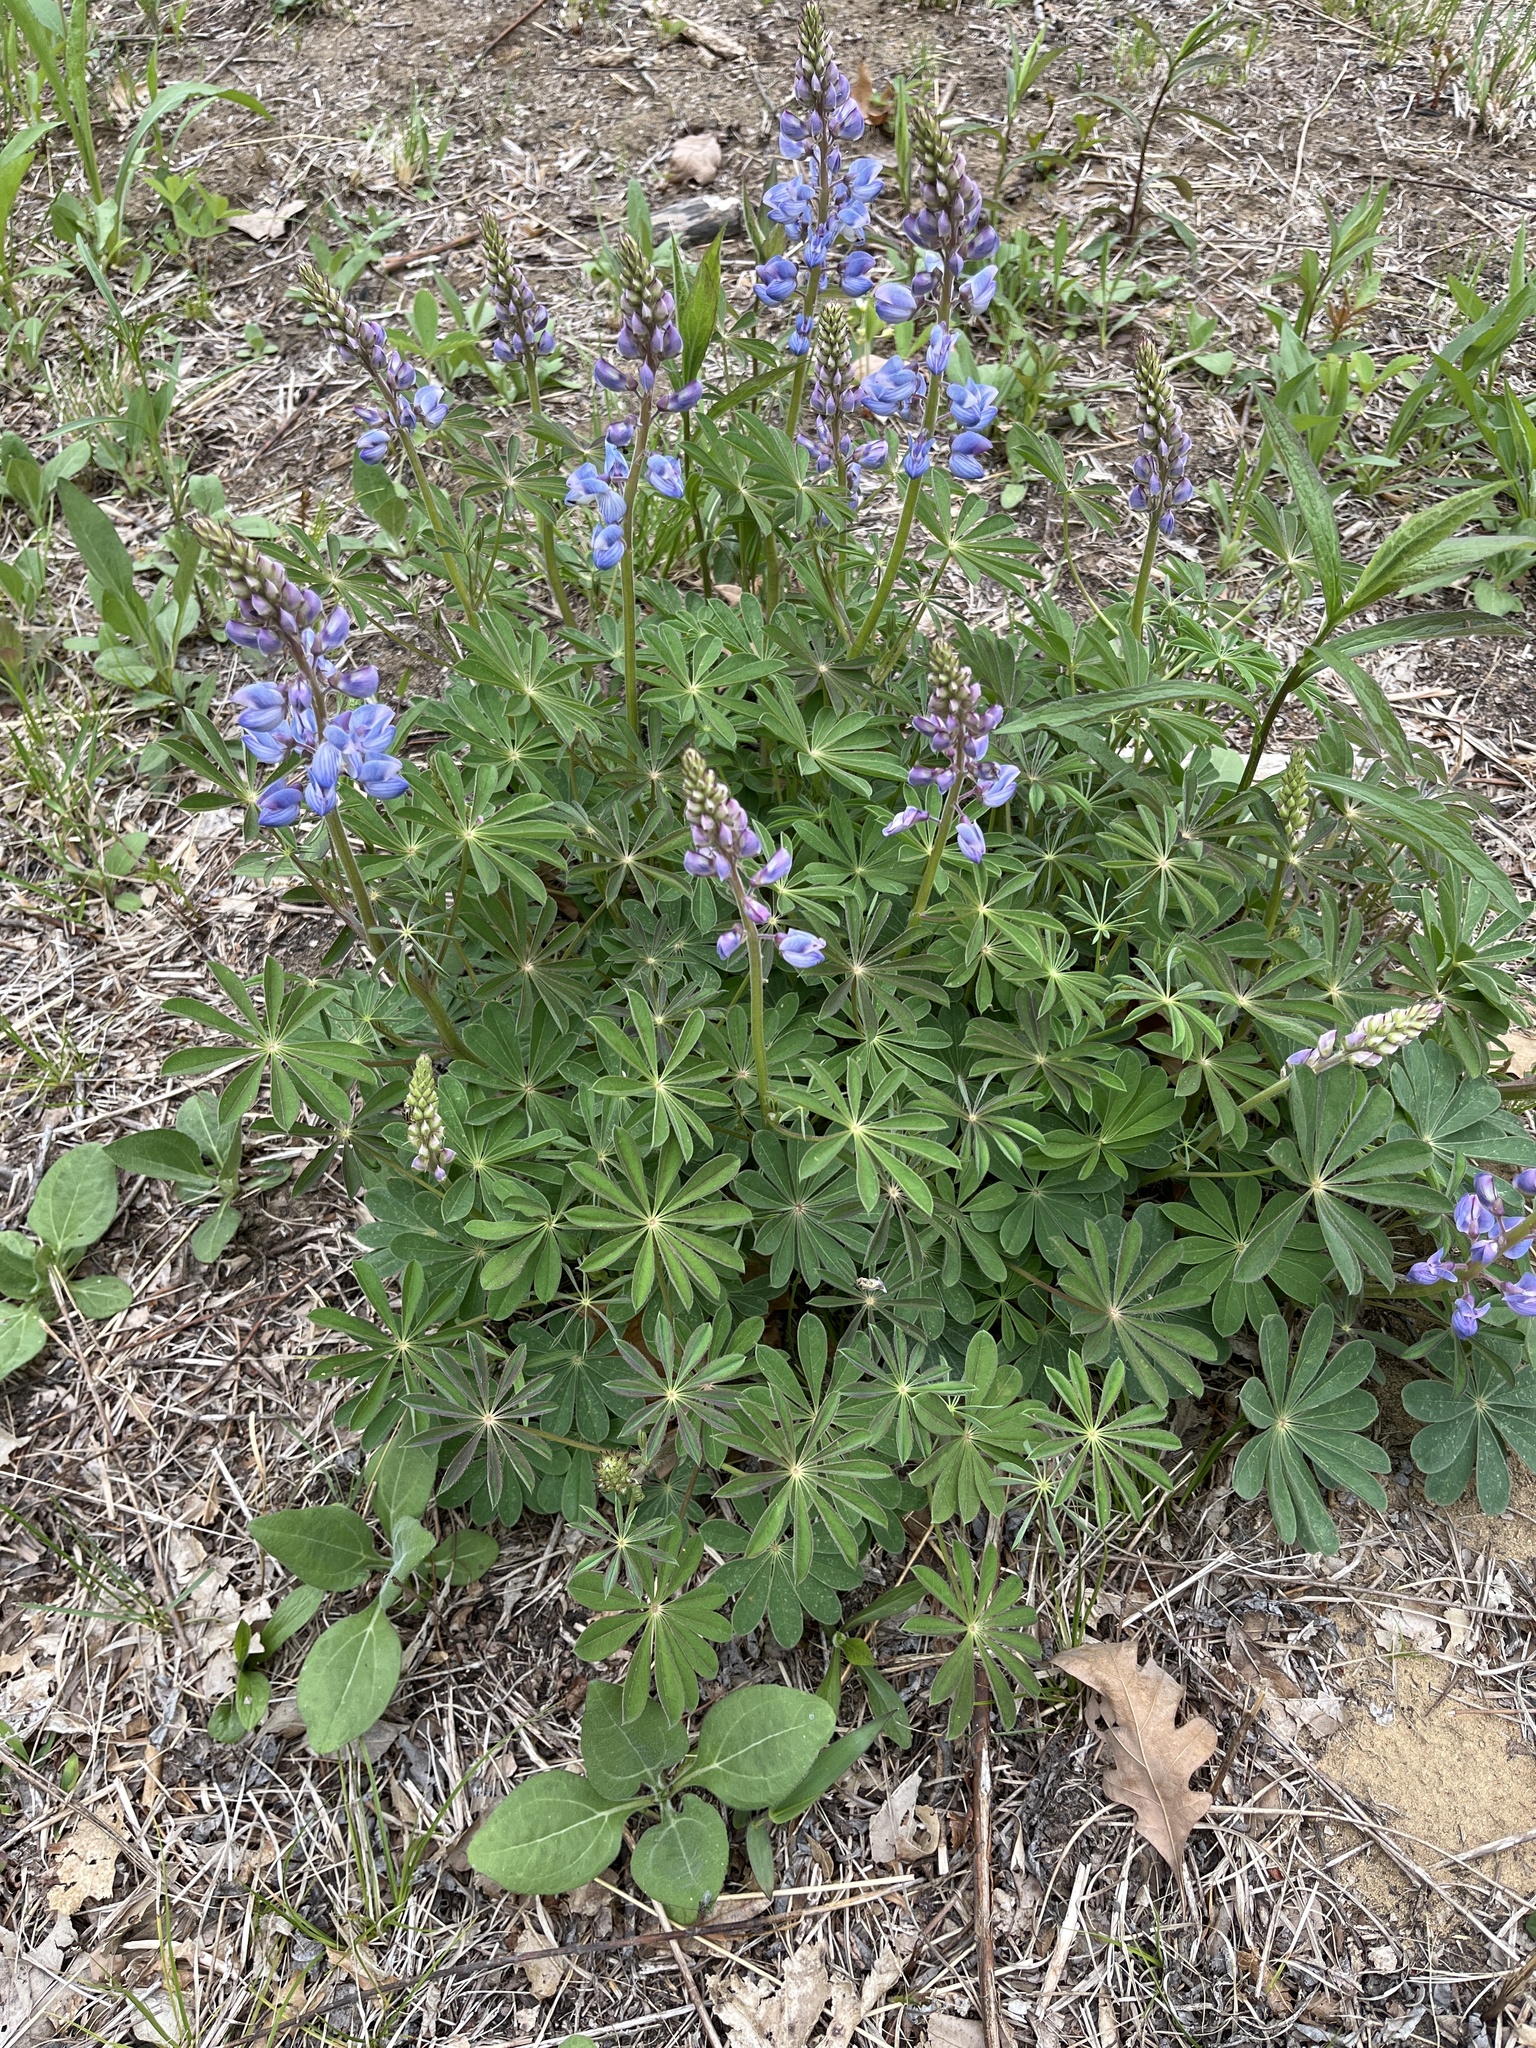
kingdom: Plantae
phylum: Tracheophyta
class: Magnoliopsida
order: Fabales
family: Fabaceae
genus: Lupinus
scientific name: Lupinus perennis
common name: Sundial lupine
